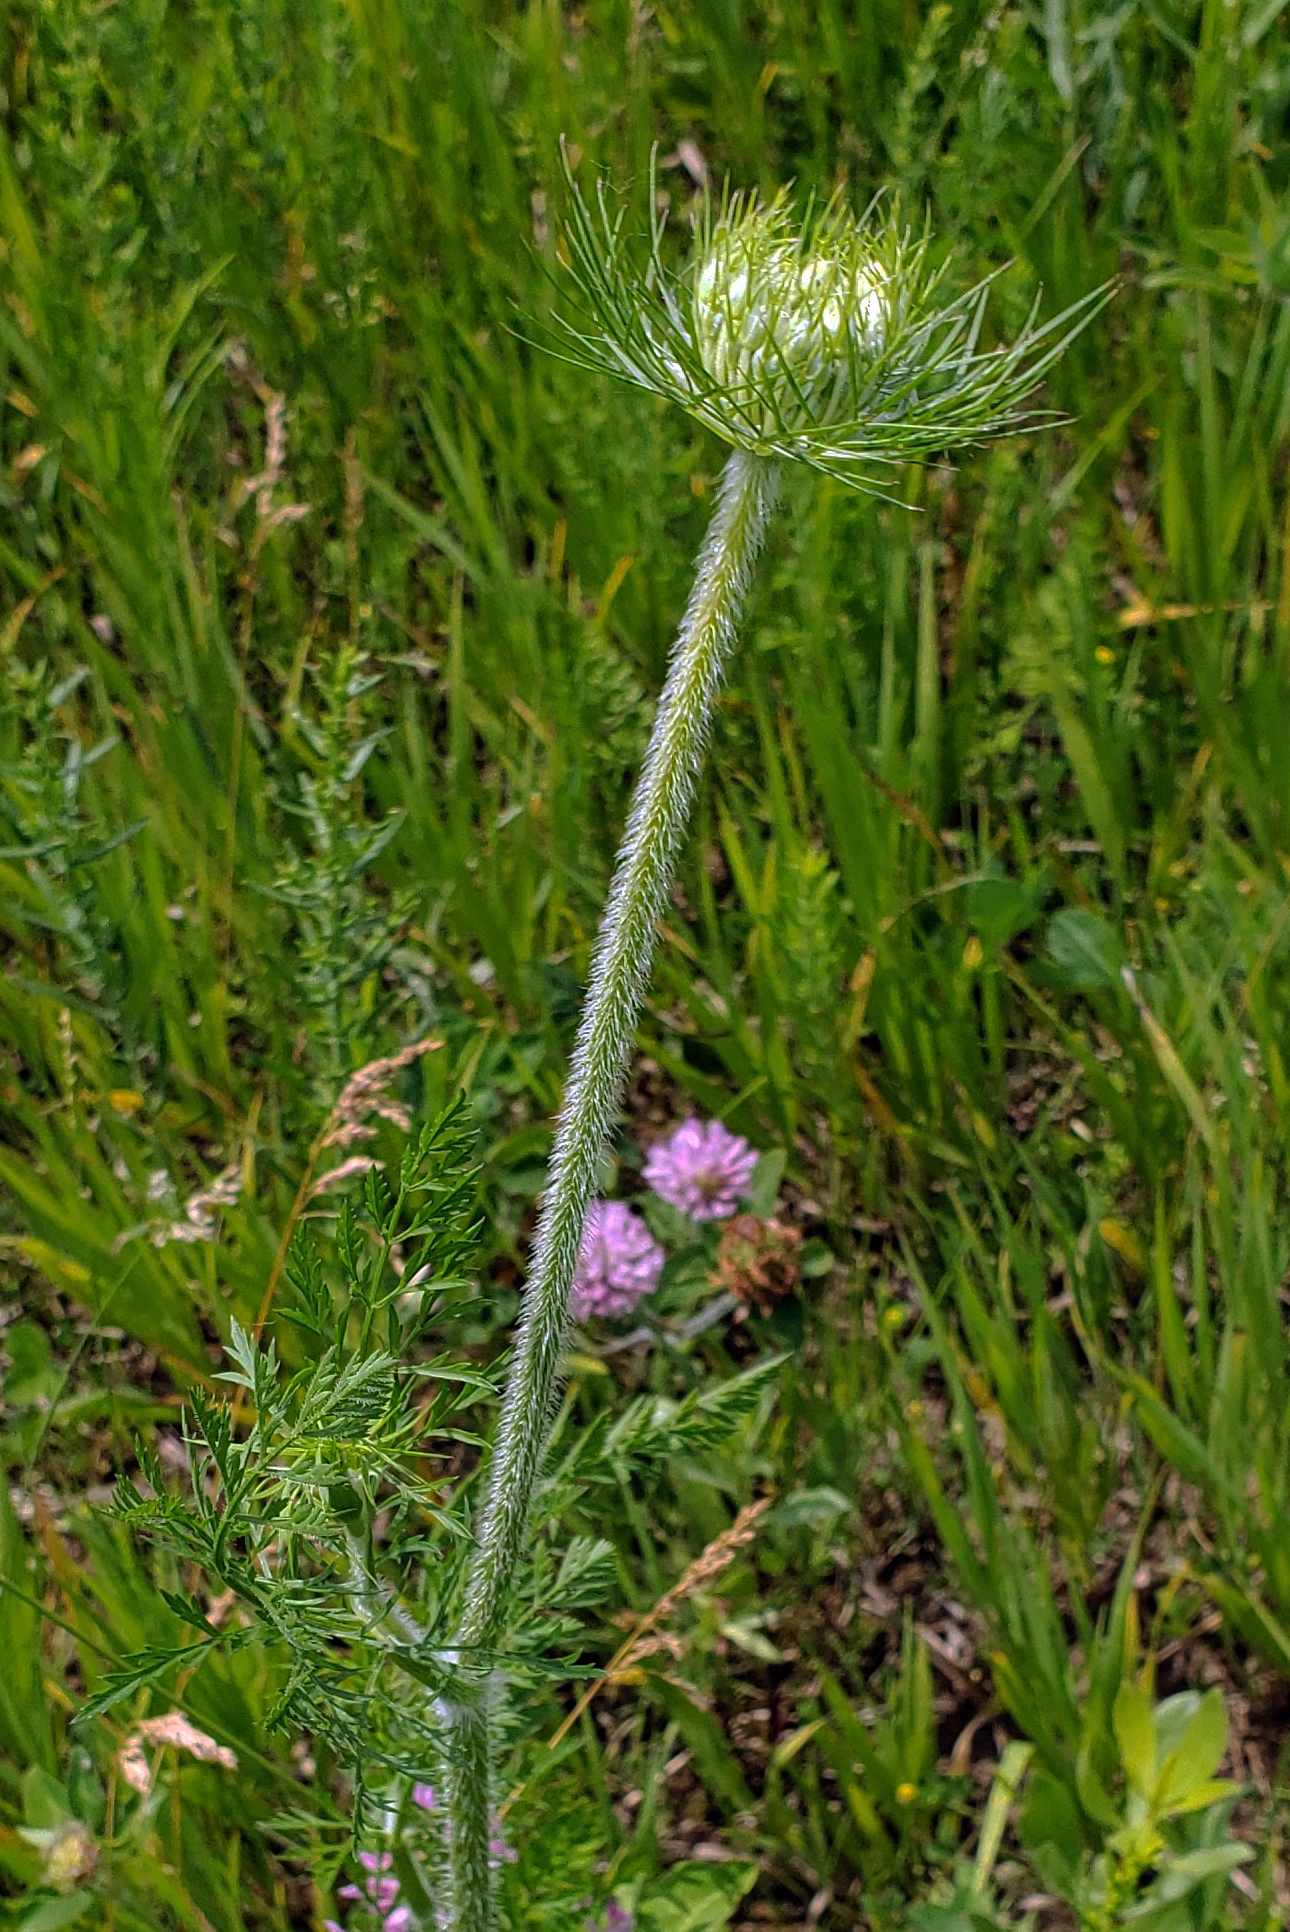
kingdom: Plantae
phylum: Tracheophyta
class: Magnoliopsida
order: Apiales
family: Apiaceae
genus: Daucus
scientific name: Daucus carota
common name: Wild carrot
